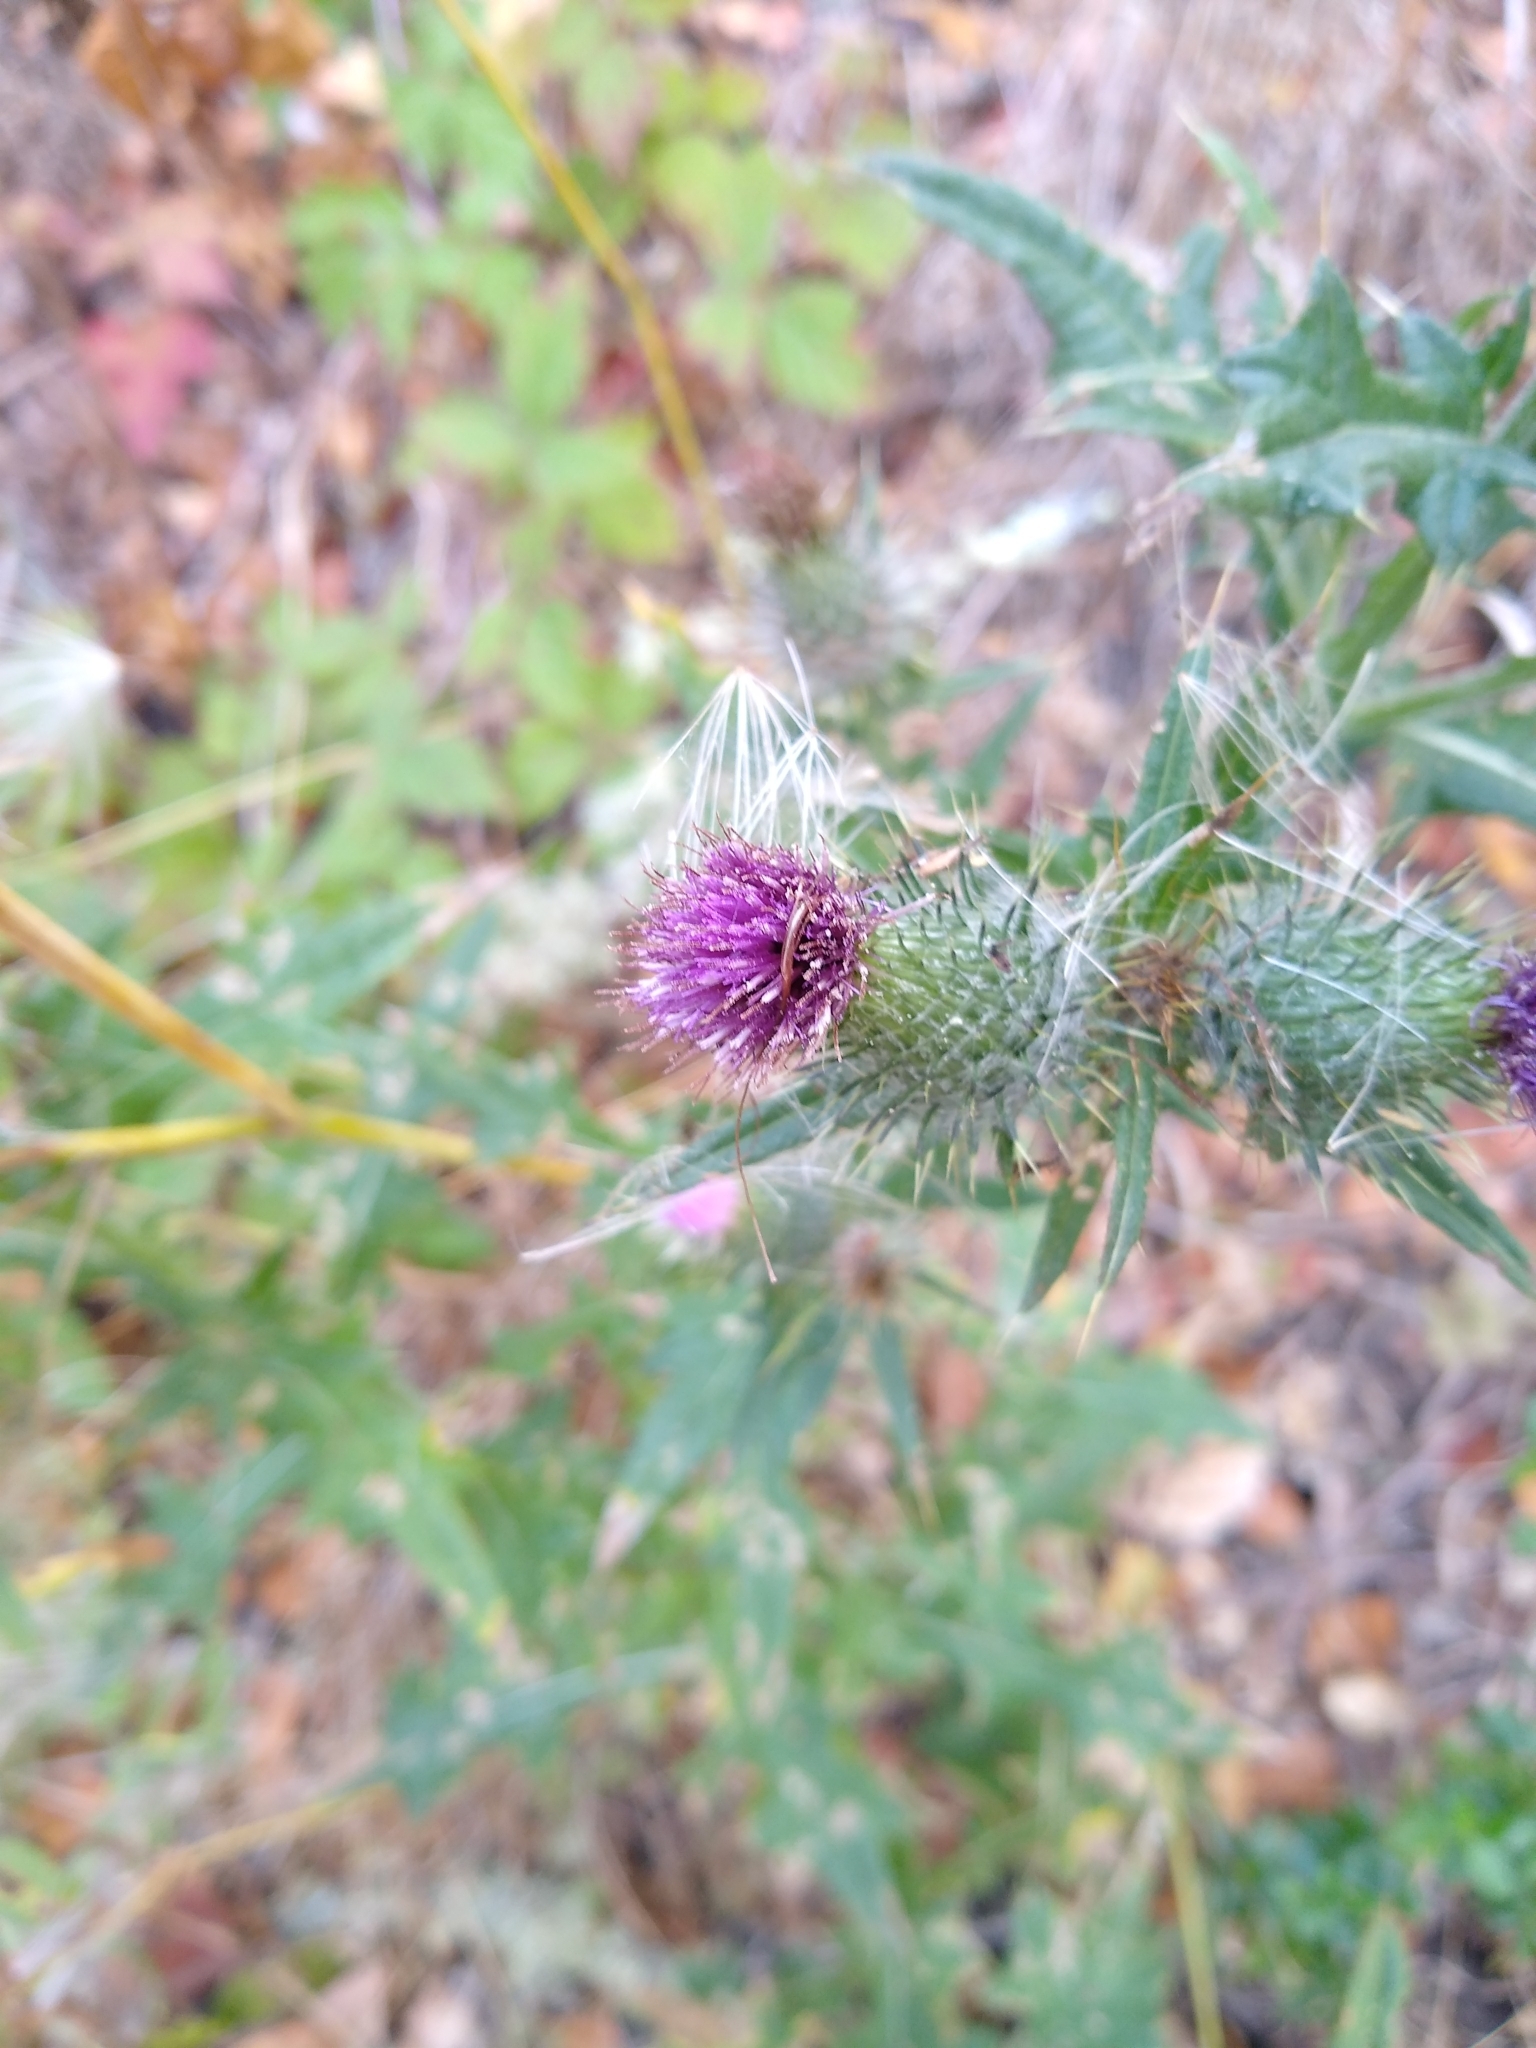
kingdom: Plantae
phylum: Tracheophyta
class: Magnoliopsida
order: Asterales
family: Asteraceae
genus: Cirsium
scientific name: Cirsium vulgare
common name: Bull thistle
